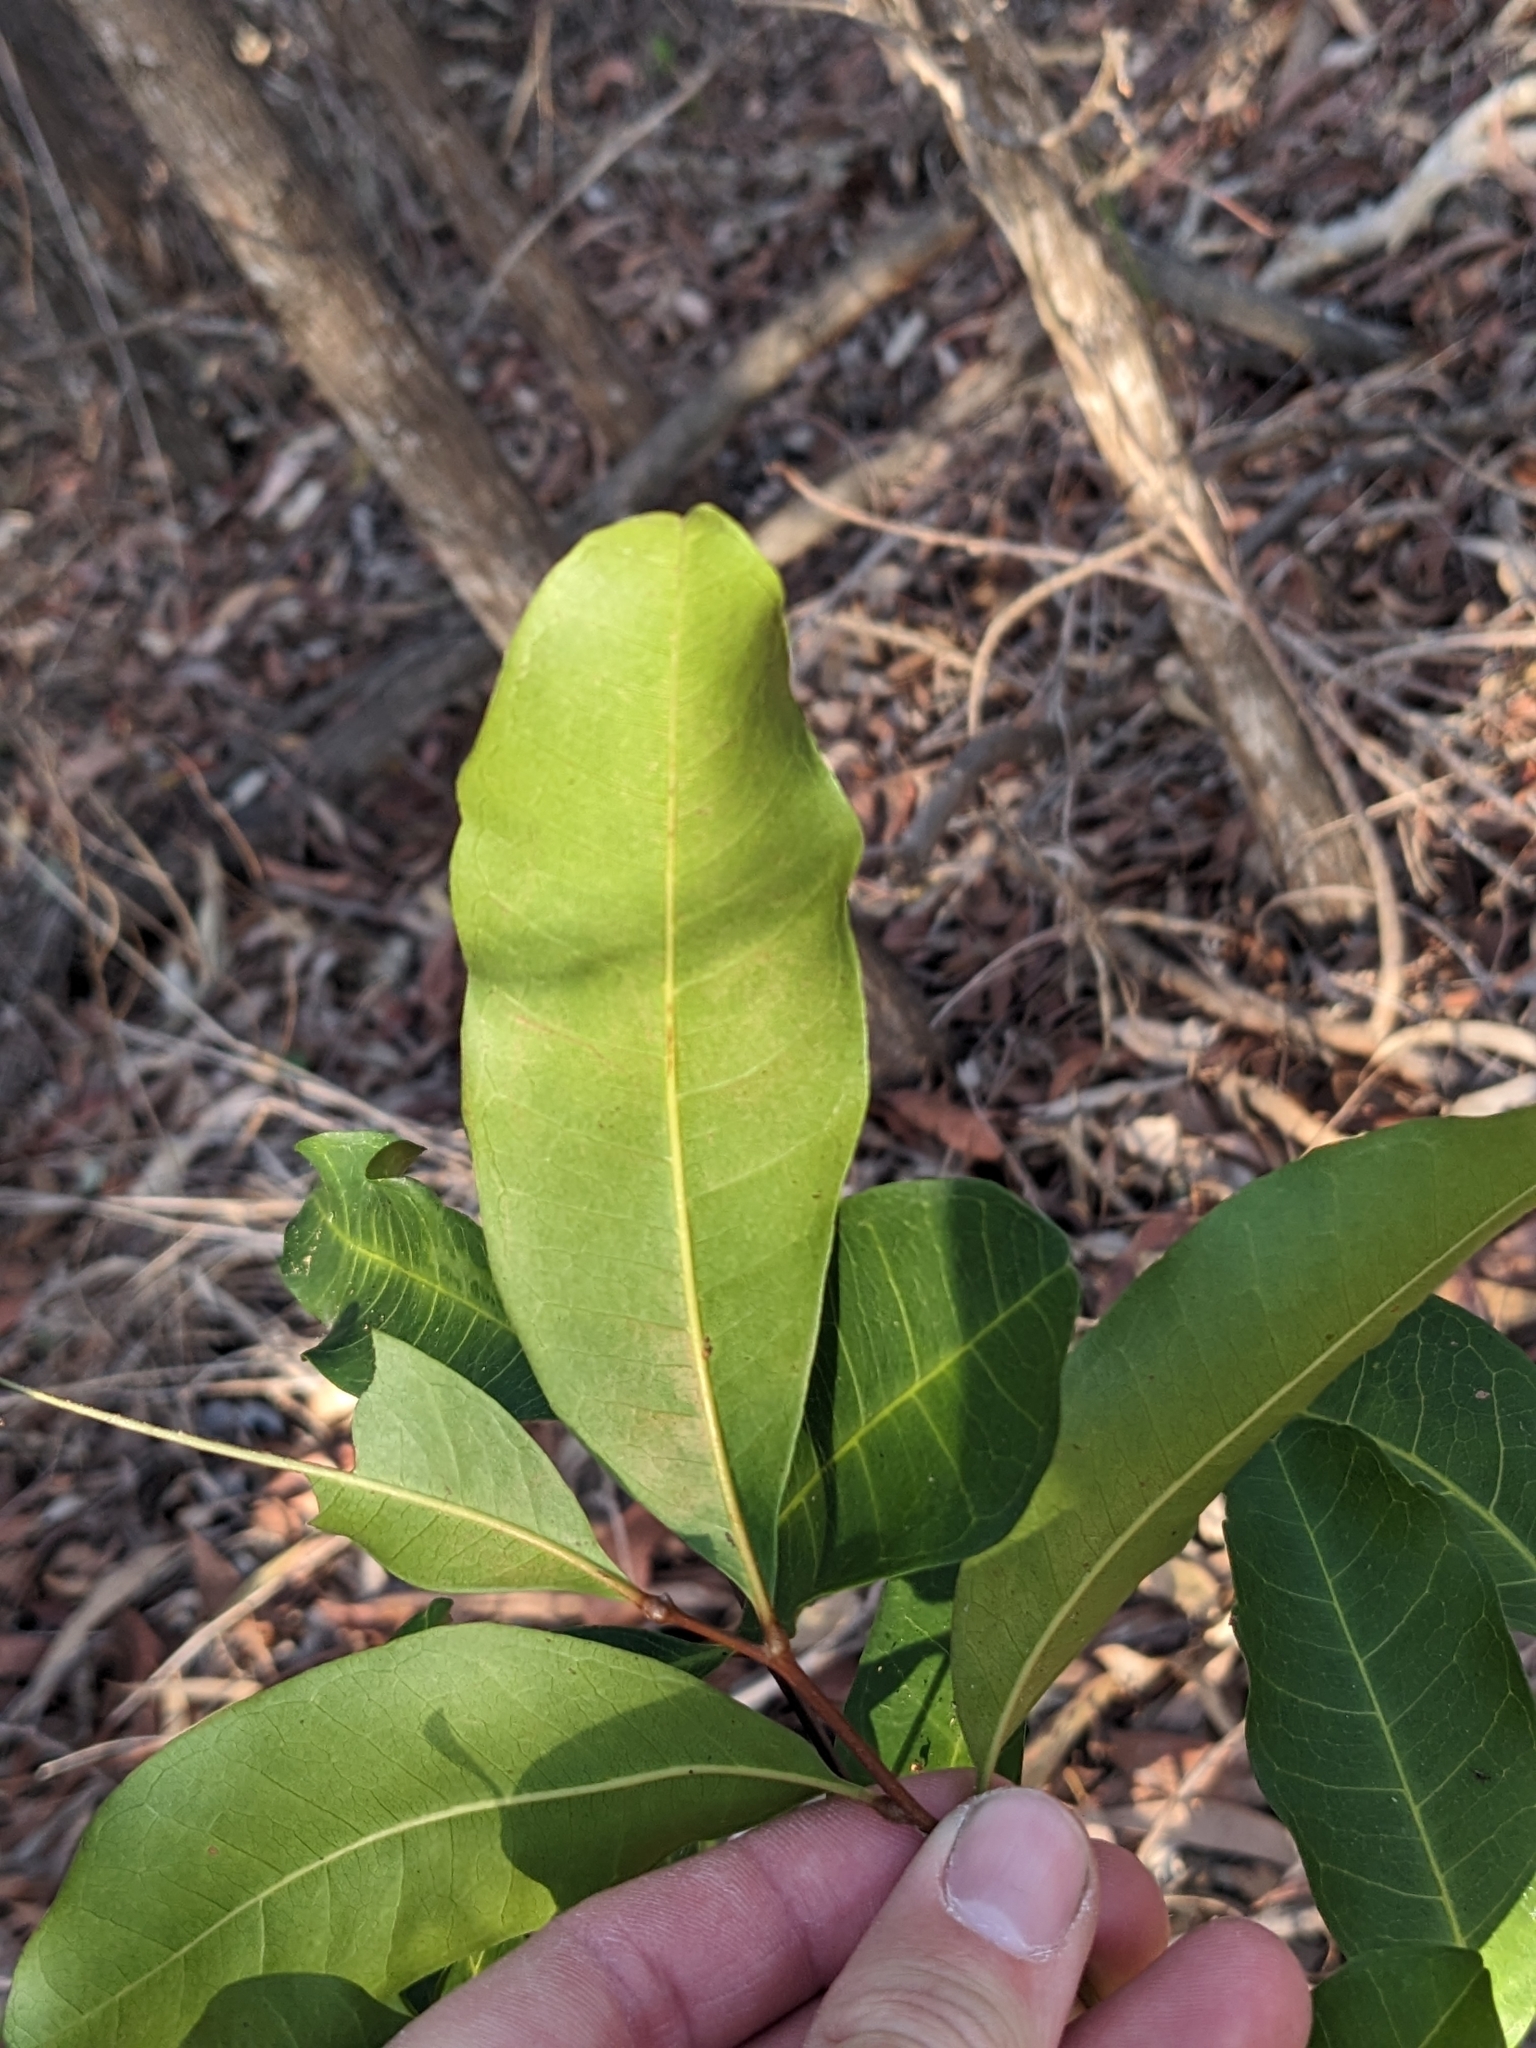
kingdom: Plantae
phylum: Tracheophyta
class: Magnoliopsida
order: Sapindales
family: Sapindaceae
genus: Cupaniopsis
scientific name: Cupaniopsis anacardioides
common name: Carrotwood
